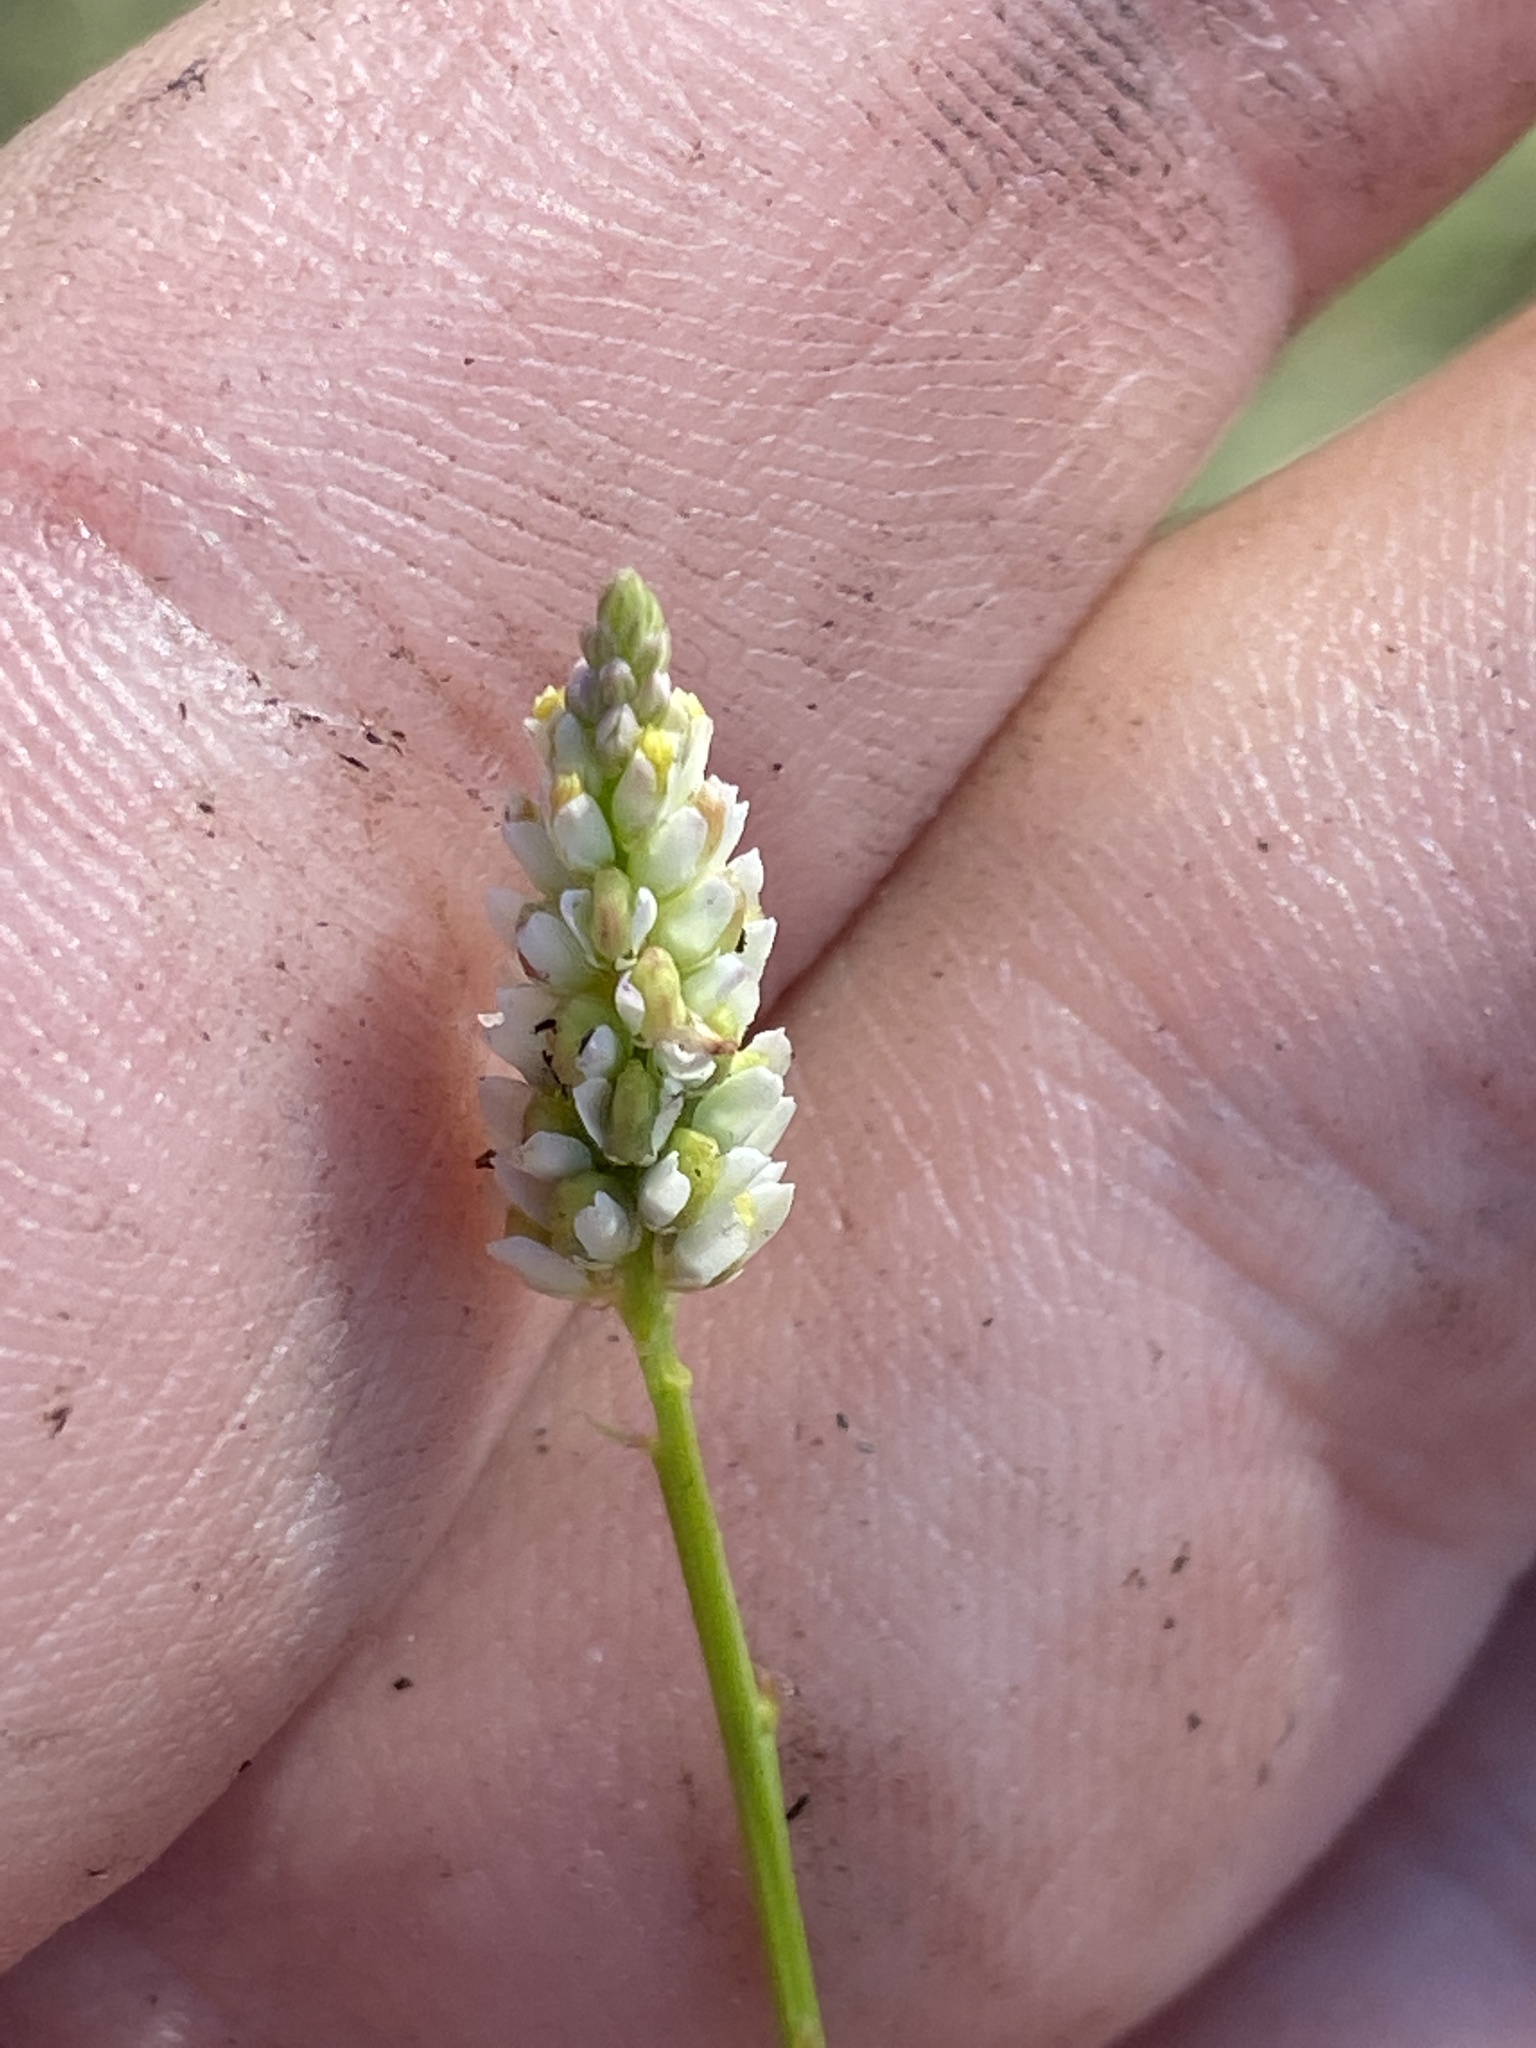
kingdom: Plantae
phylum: Tracheophyta
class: Magnoliopsida
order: Fabales
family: Polygalaceae
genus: Polygala
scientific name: Polygala setacea
